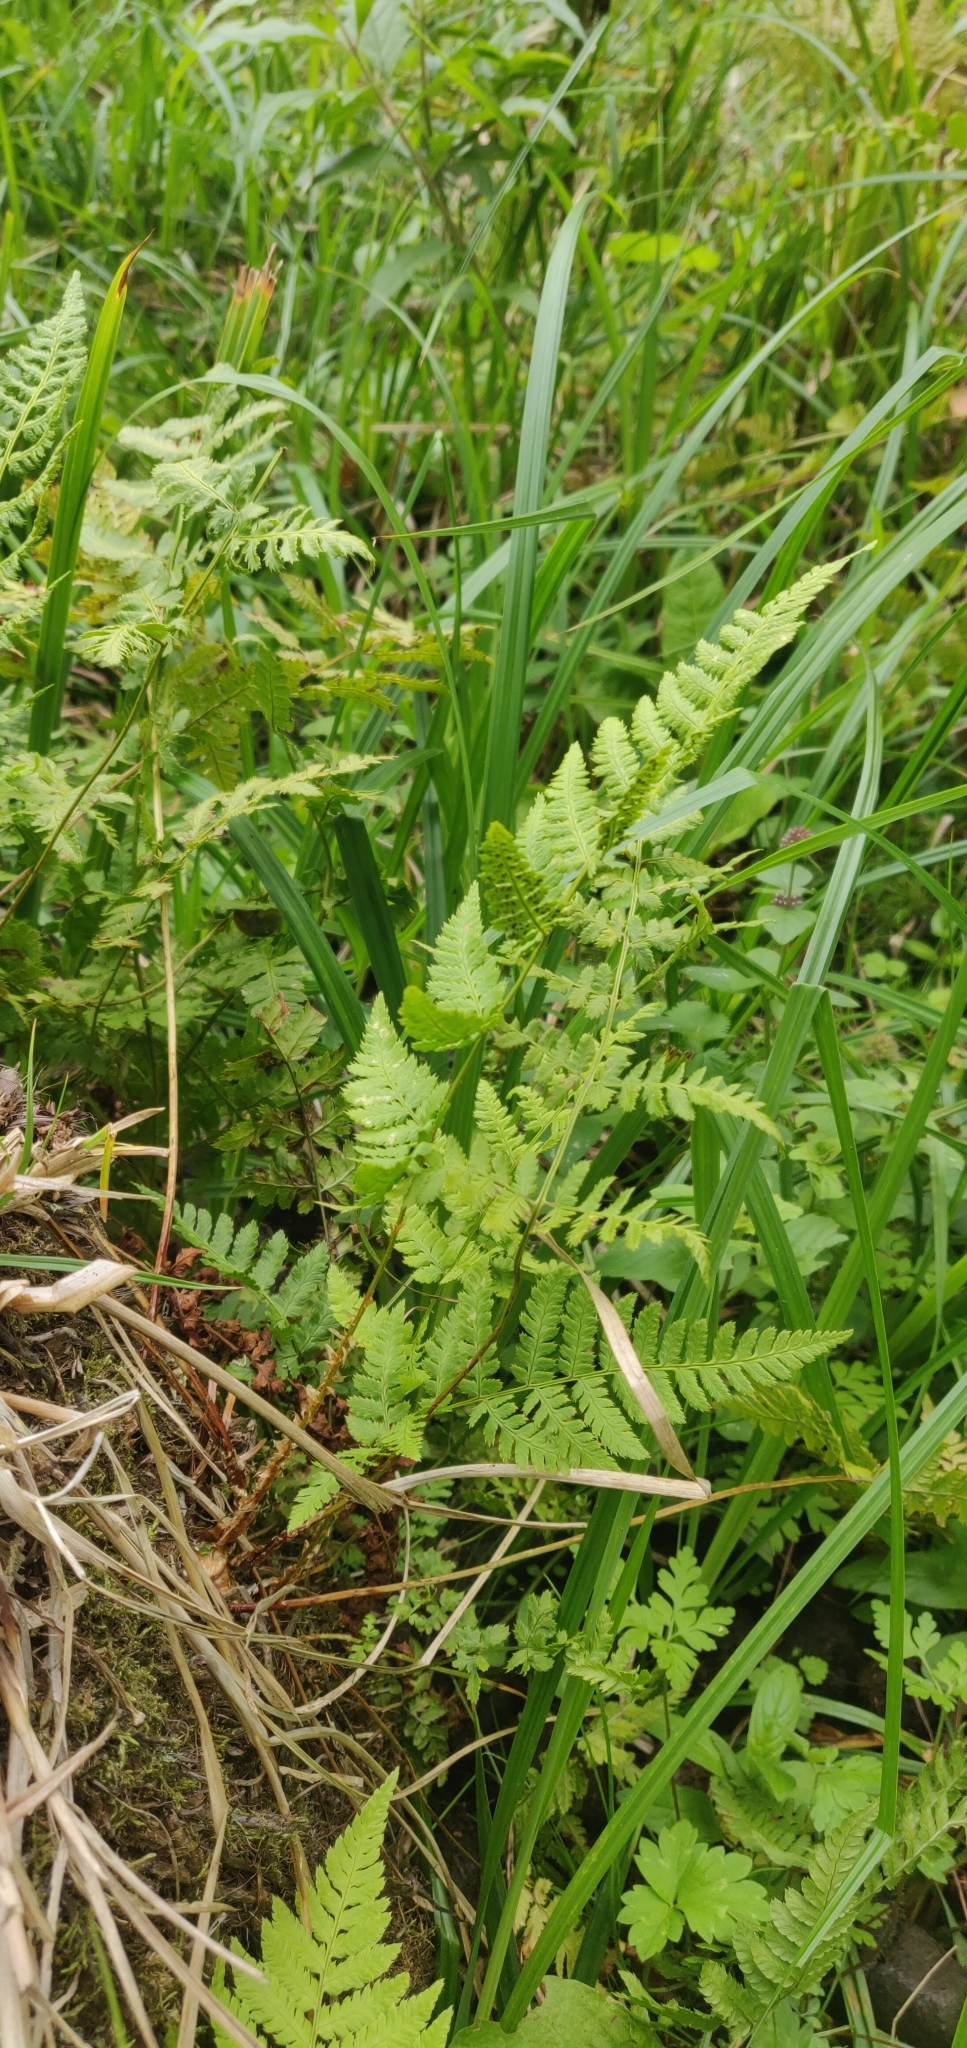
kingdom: Plantae
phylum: Tracheophyta
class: Polypodiopsida
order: Polypodiales
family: Dryopteridaceae
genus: Dryopteris
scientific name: Dryopteris carthusiana
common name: Narrow buckler-fern
